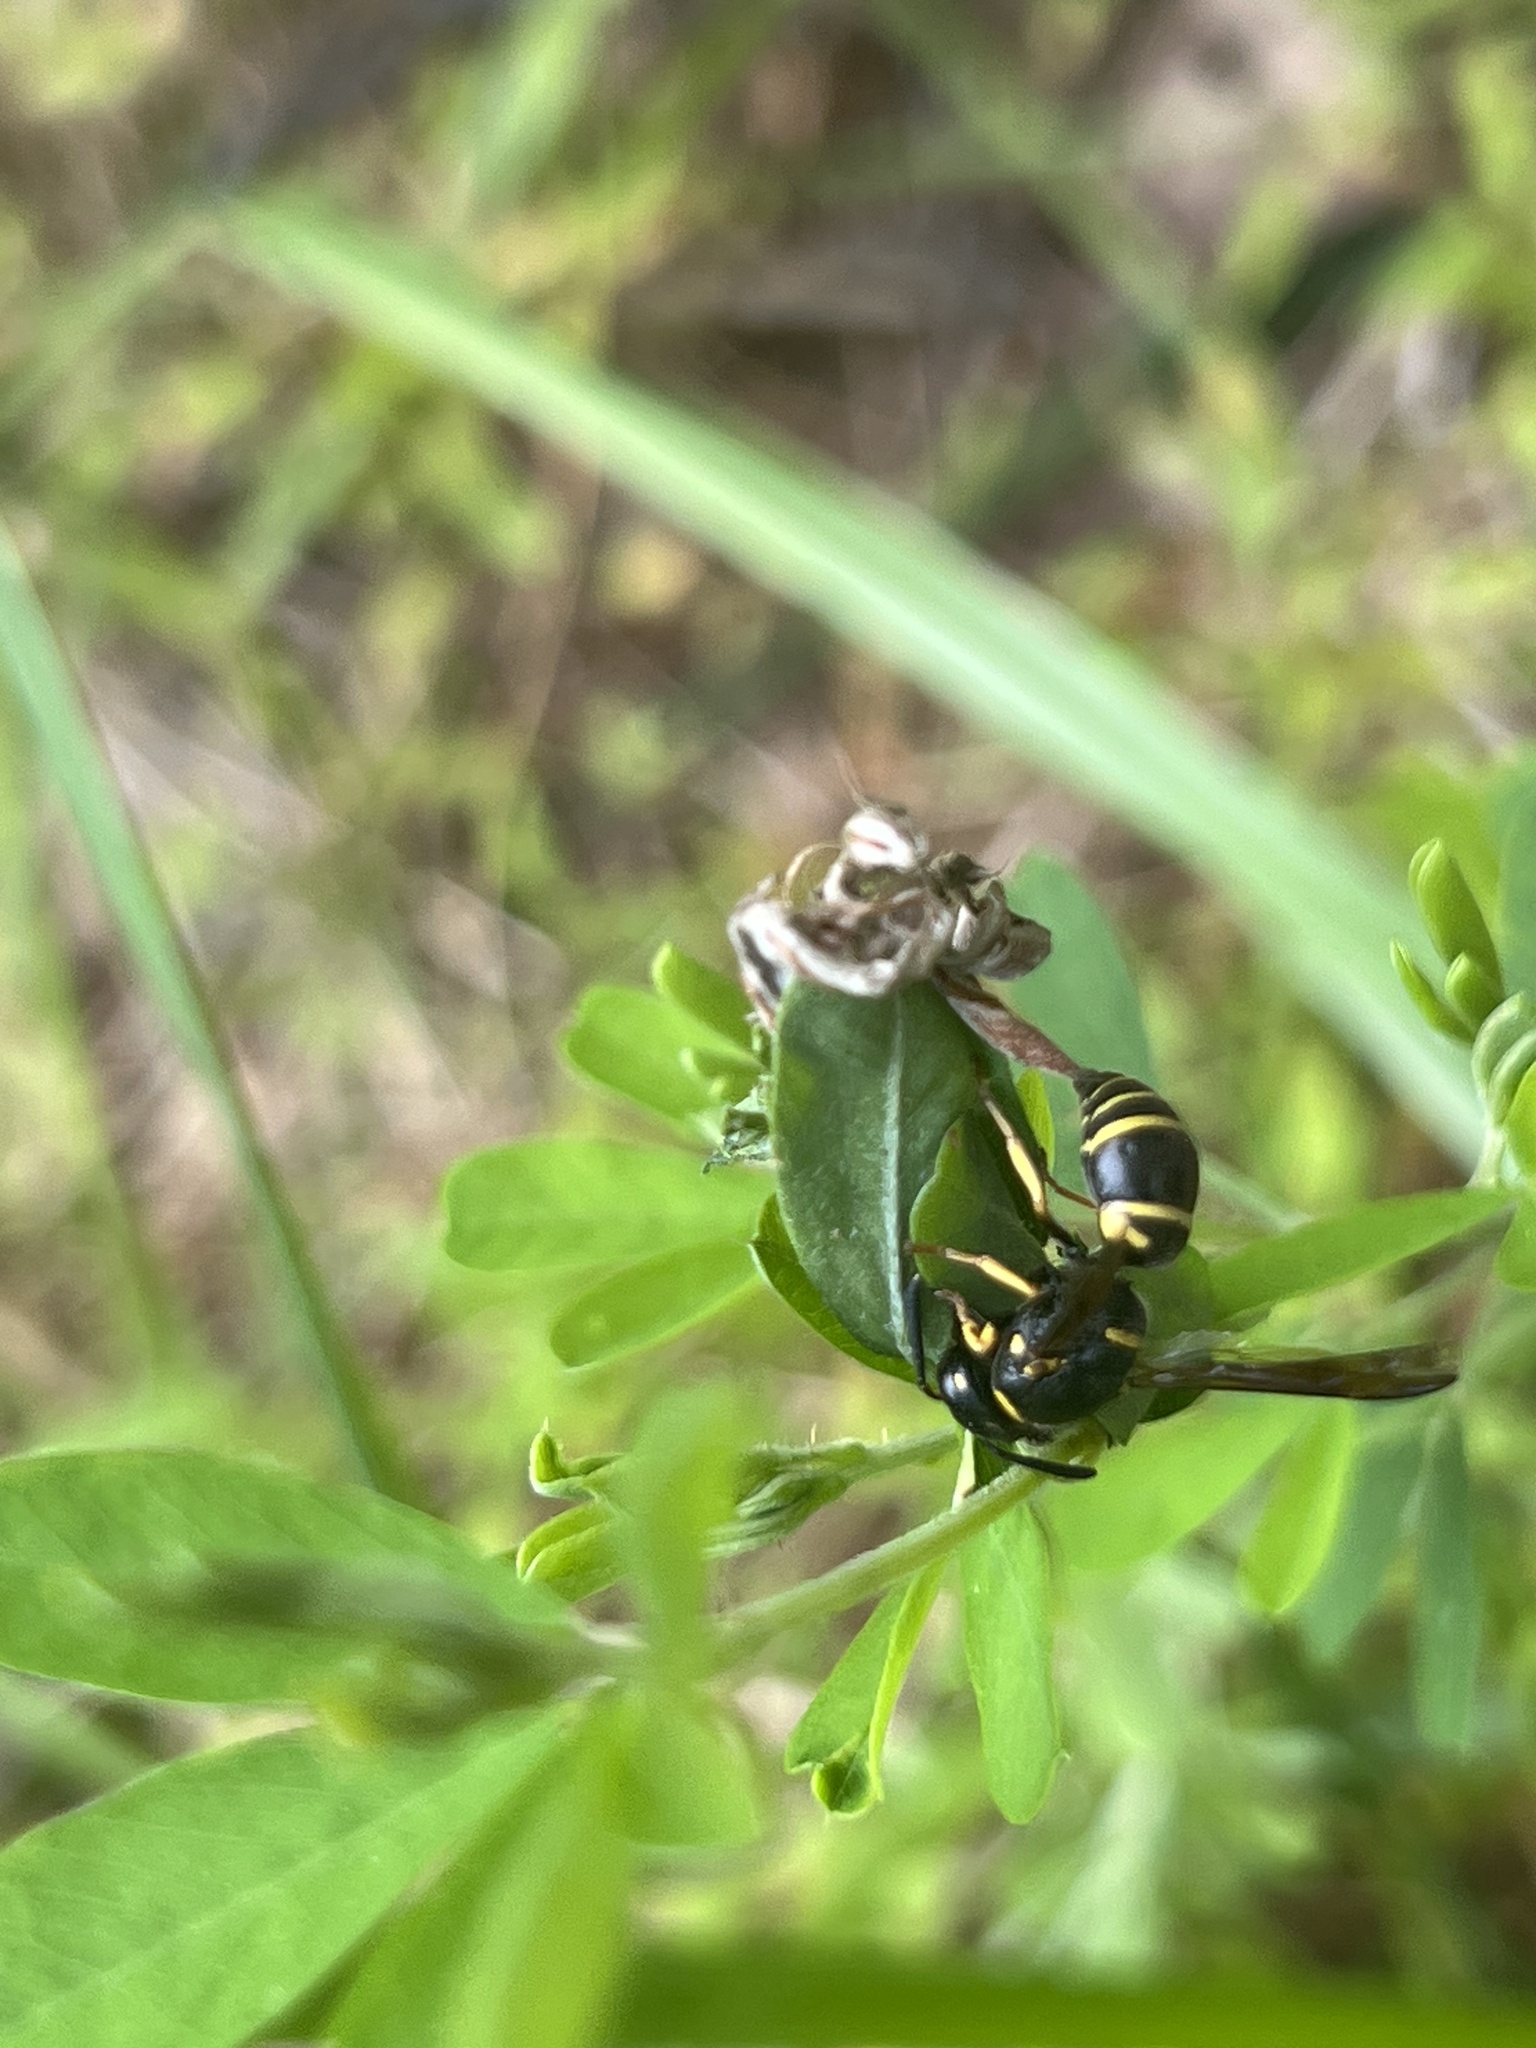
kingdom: Animalia
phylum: Arthropoda
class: Insecta
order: Hymenoptera
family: Eumenidae
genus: Euodynerus
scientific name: Euodynerus foraminatus
